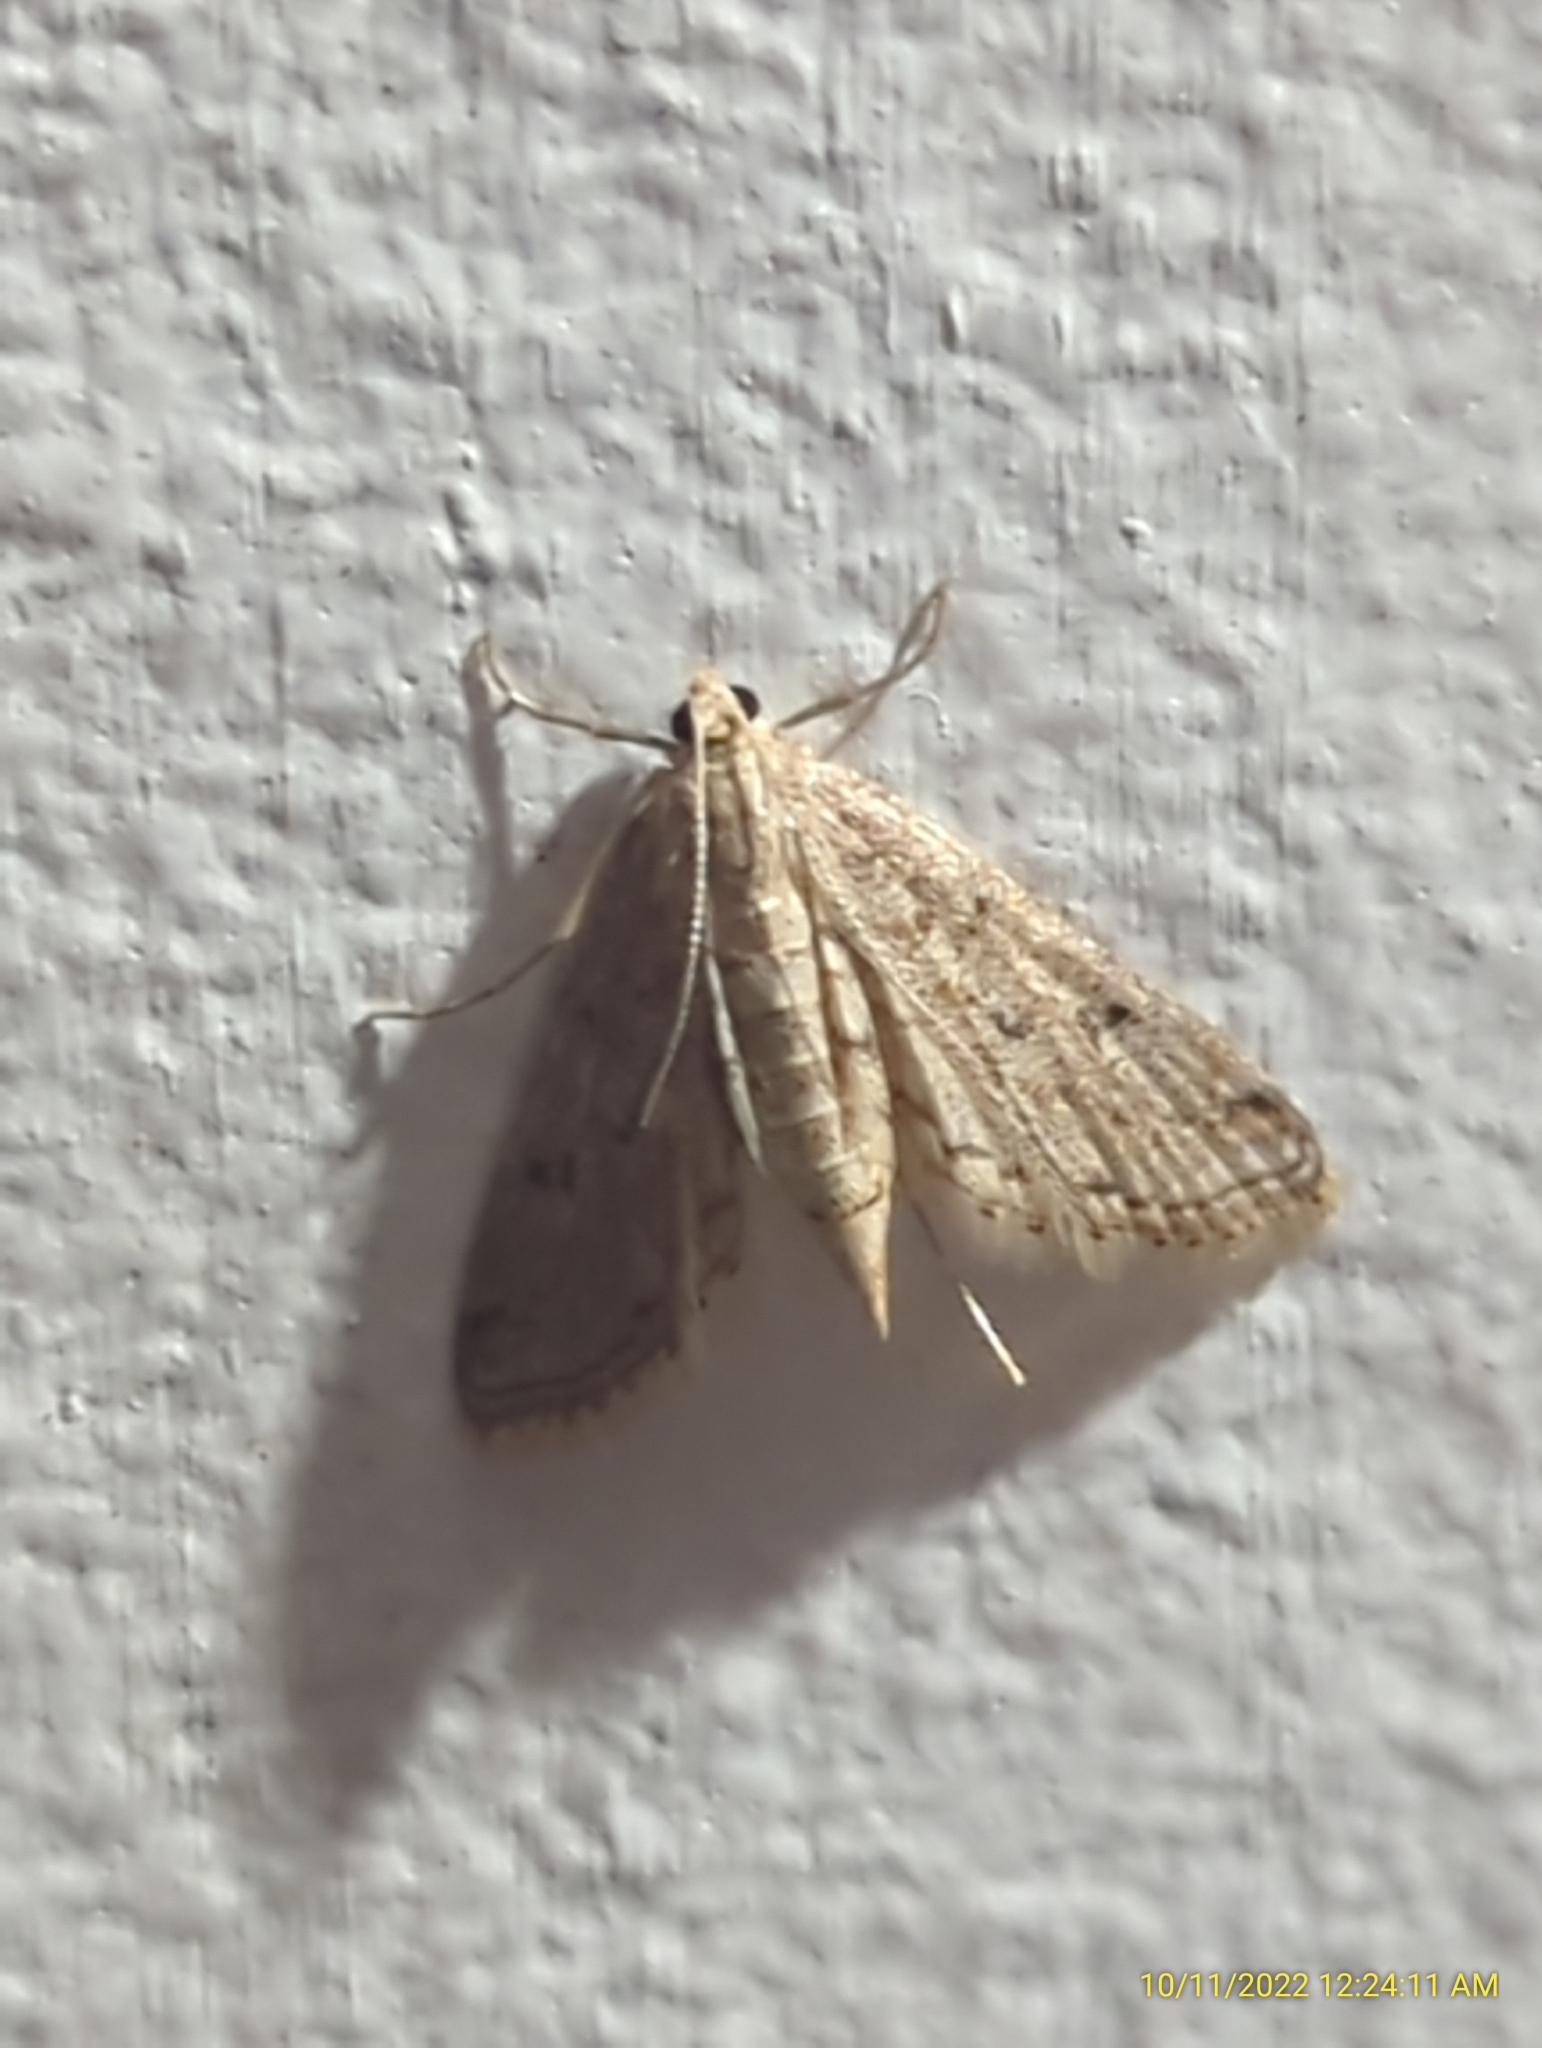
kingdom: Animalia
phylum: Arthropoda
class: Insecta
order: Lepidoptera
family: Crambidae
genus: Parapoynx
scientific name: Parapoynx allionealis
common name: Bladderwort casemaker
